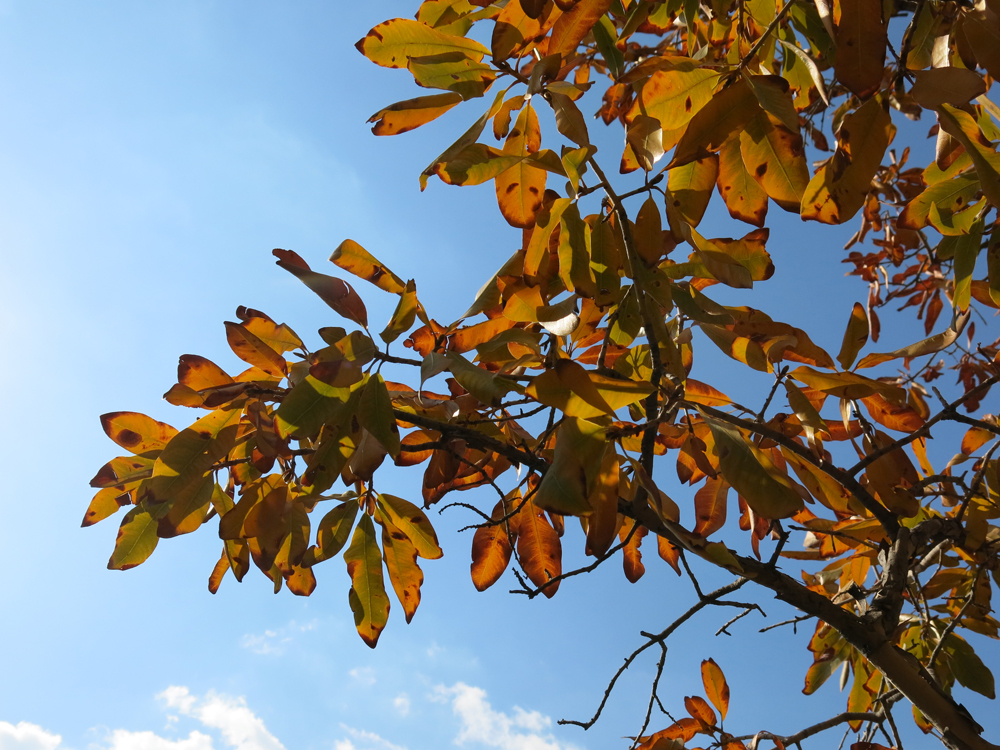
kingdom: Plantae
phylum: Tracheophyta
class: Magnoliopsida
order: Malpighiales
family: Ochnaceae
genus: Ochna
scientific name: Ochna pulchra
